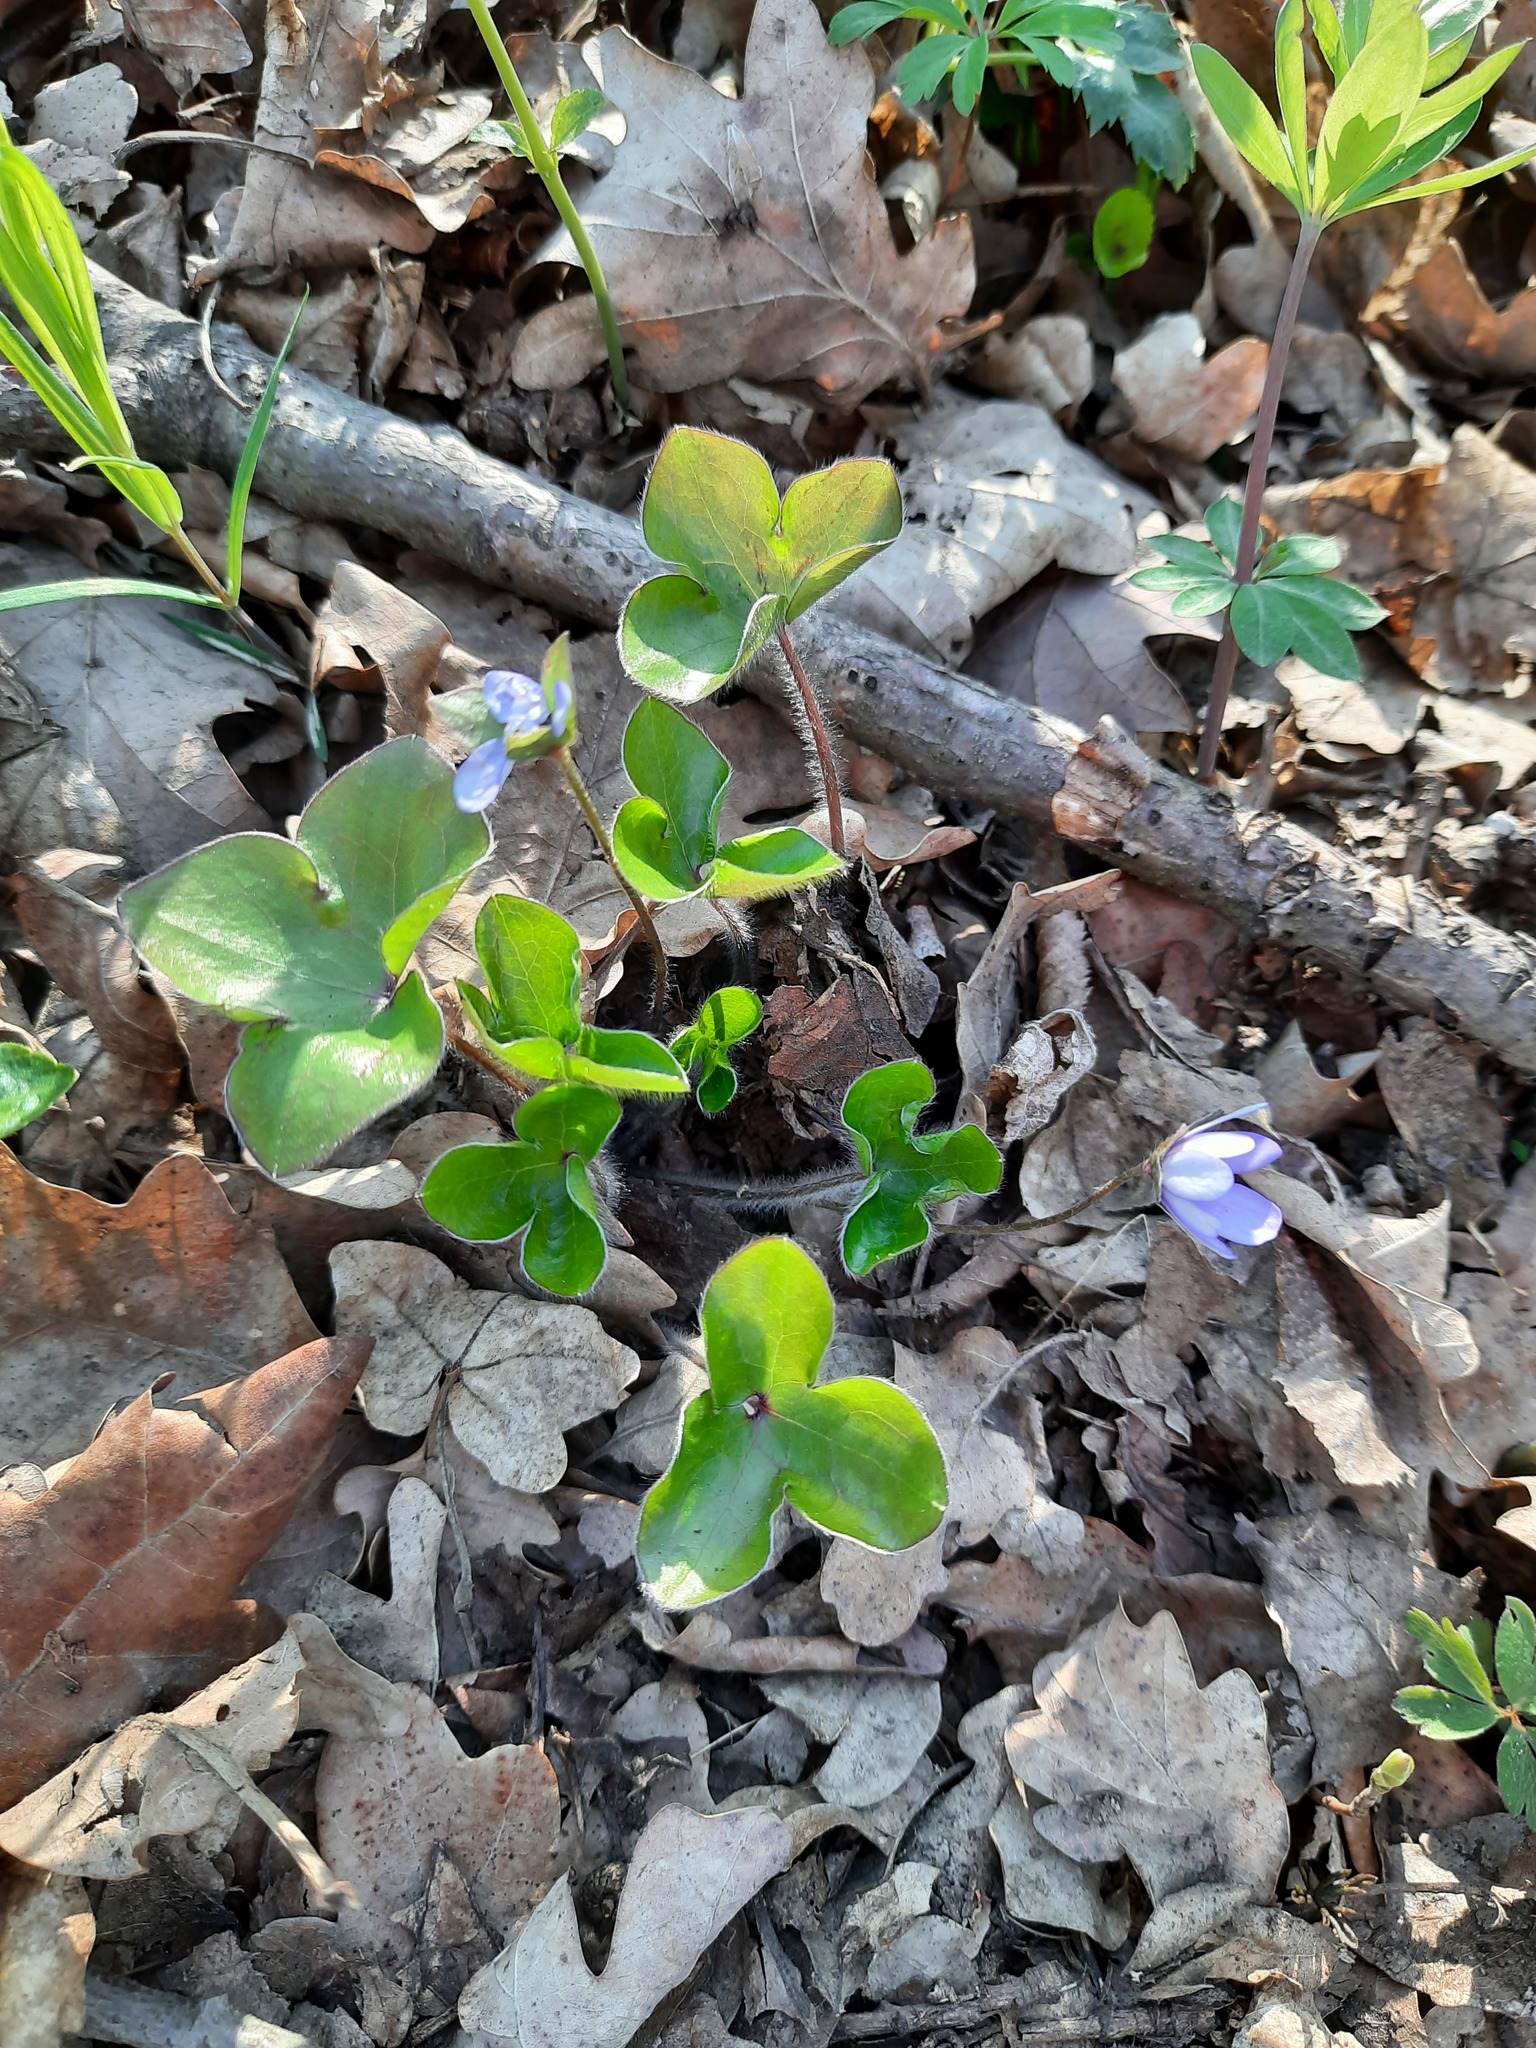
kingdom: Plantae
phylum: Tracheophyta
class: Magnoliopsida
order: Ranunculales
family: Ranunculaceae
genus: Hepatica
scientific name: Hepatica nobilis
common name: Liverleaf
